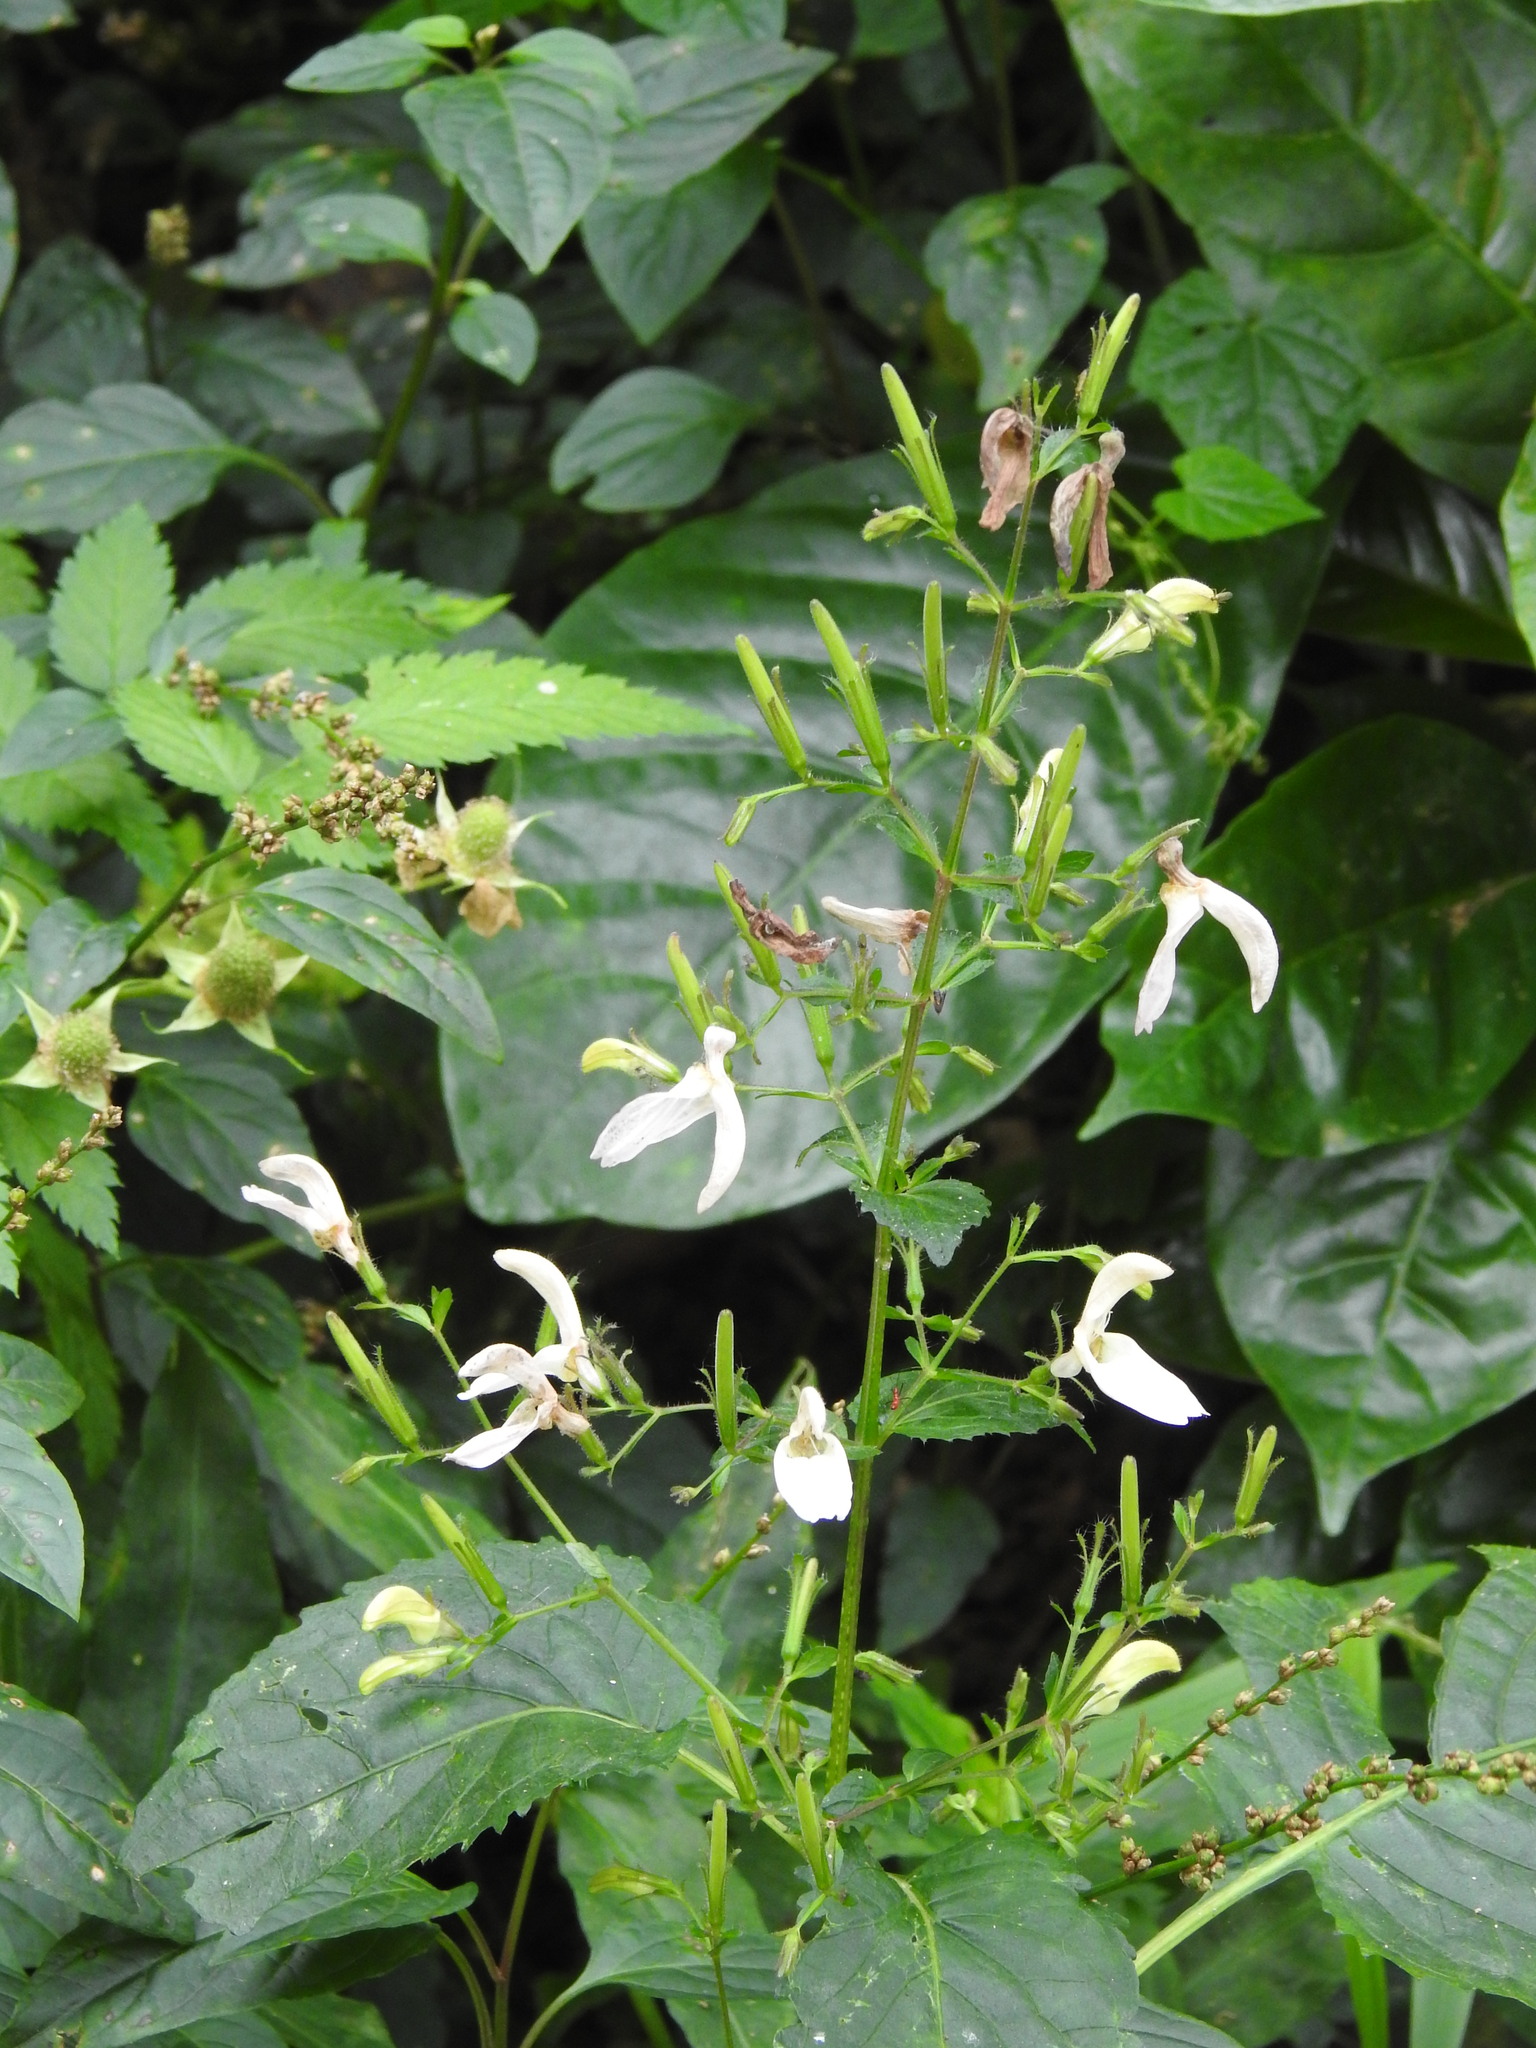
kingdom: Plantae
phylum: Tracheophyta
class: Magnoliopsida
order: Lamiales
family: Acanthaceae
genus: Brillantaisia
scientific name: Brillantaisia vogeliana
